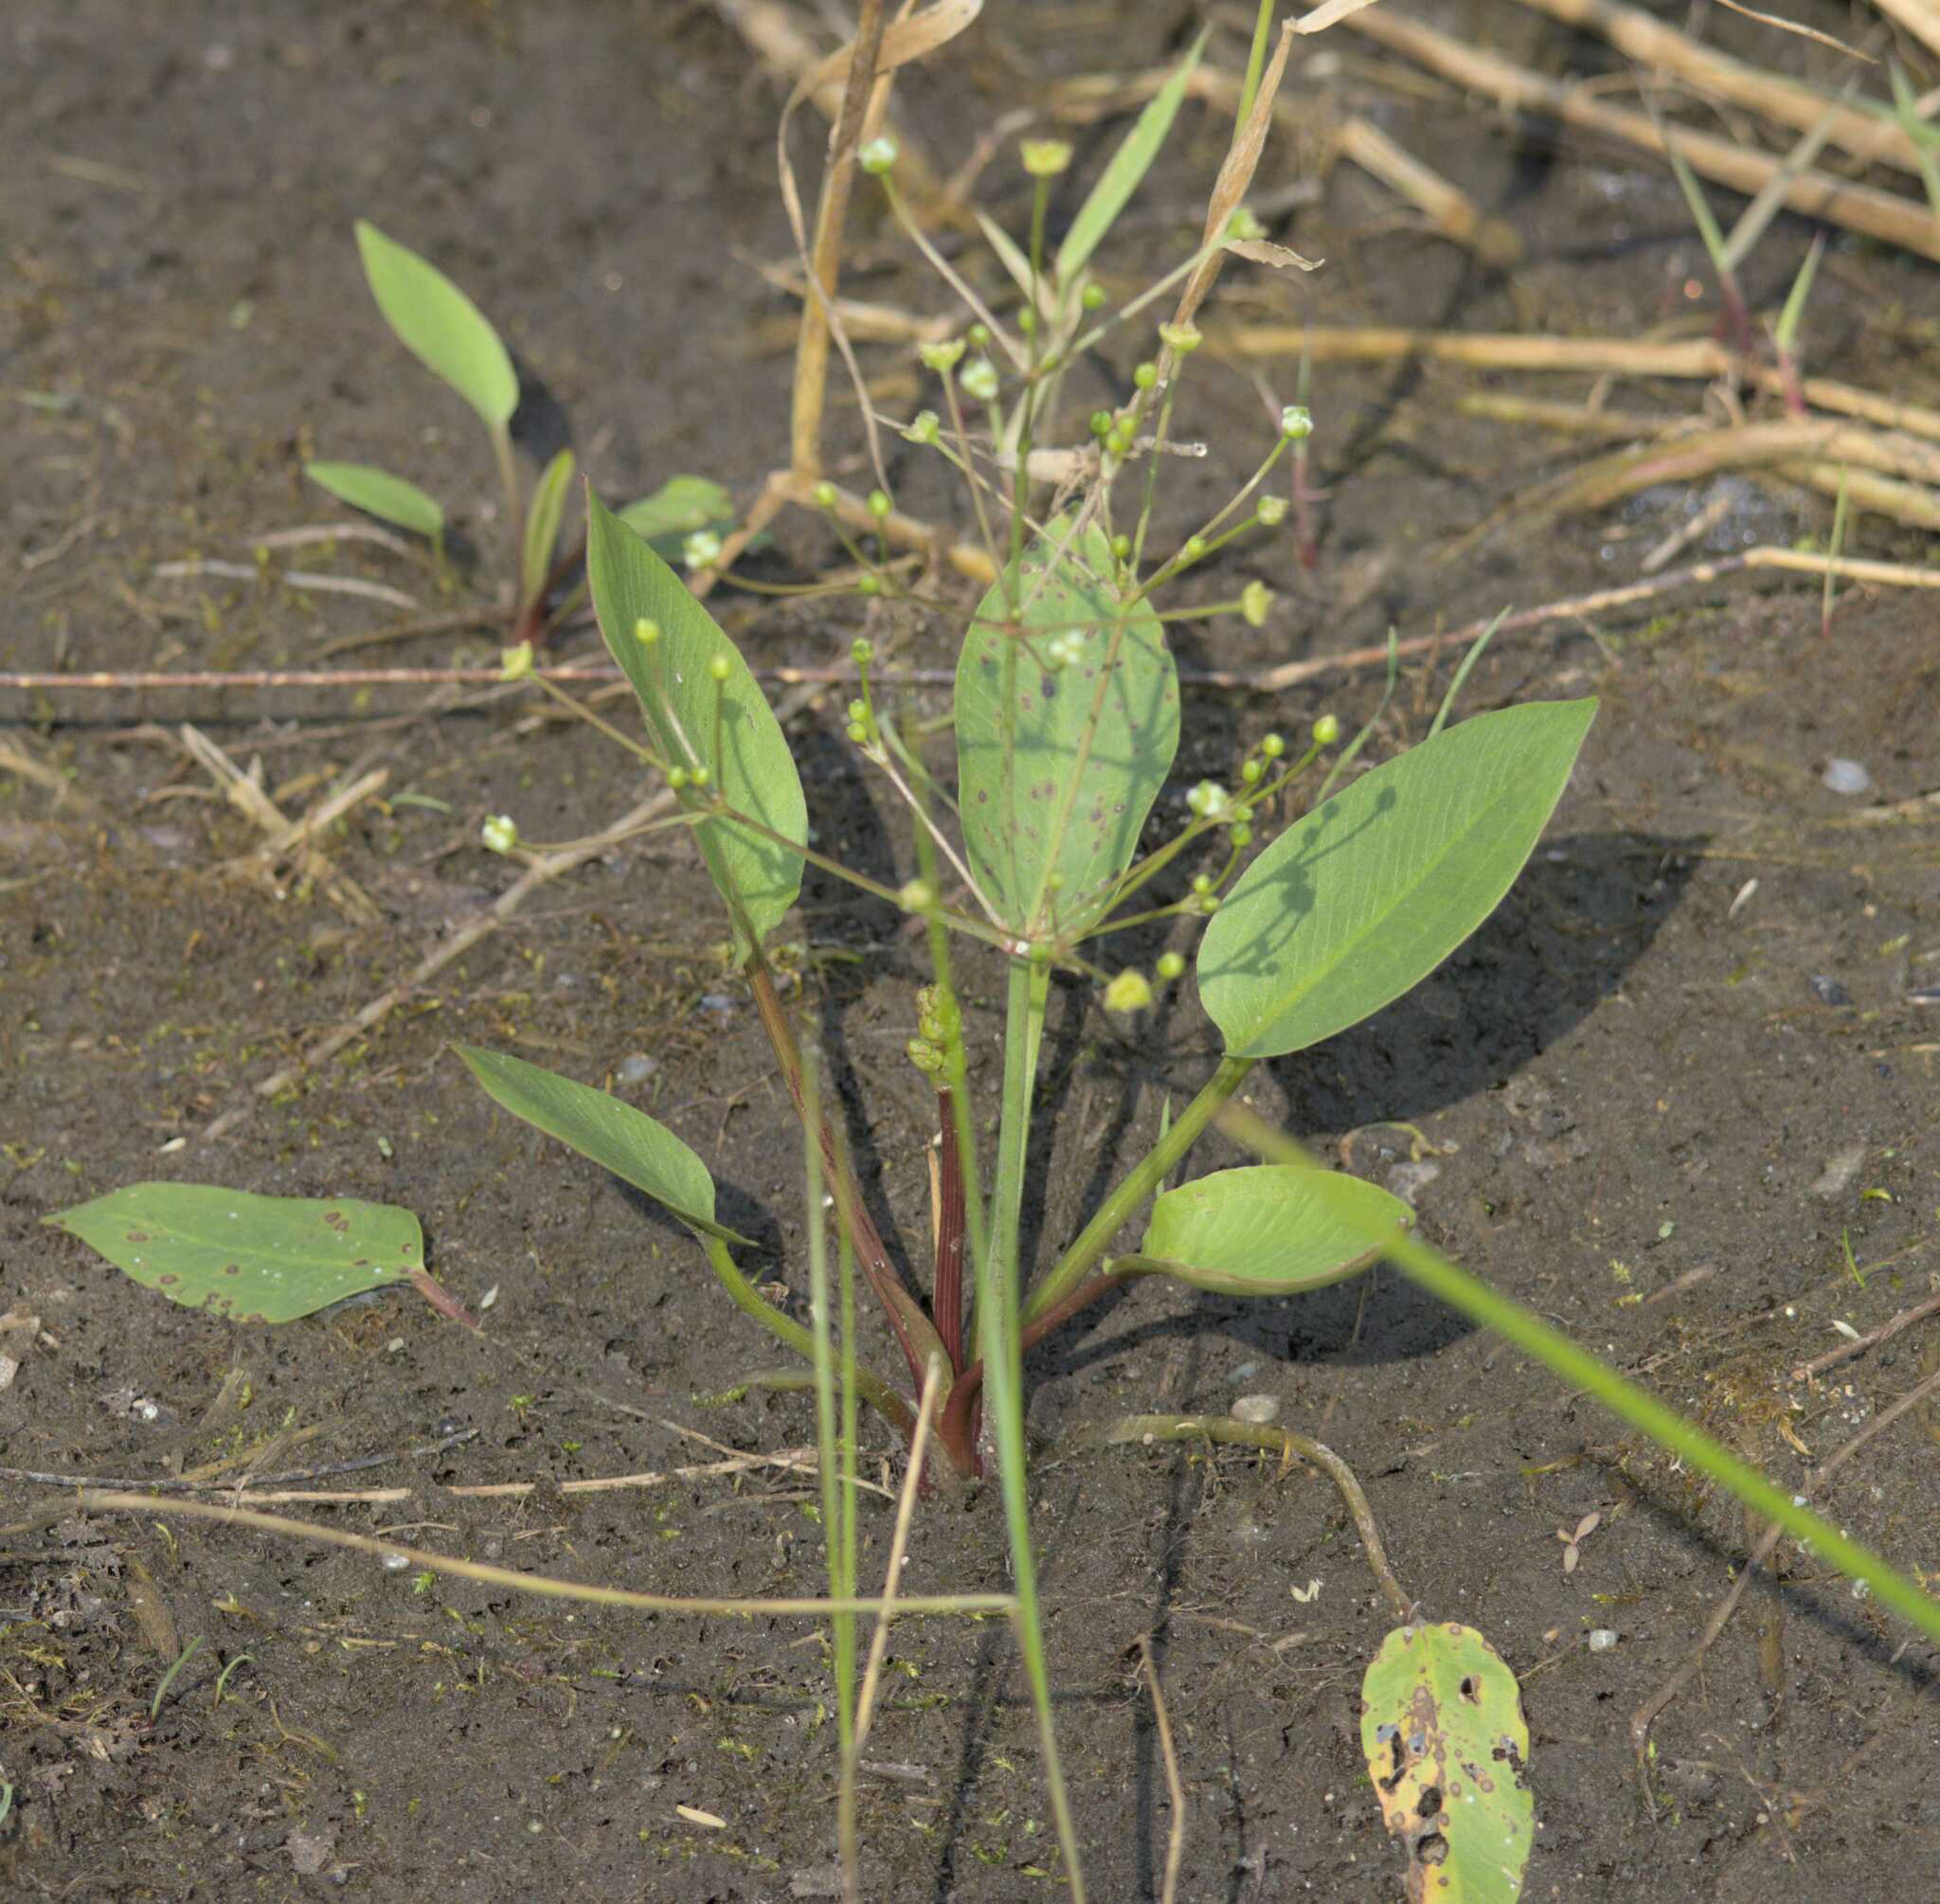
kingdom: Plantae
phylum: Tracheophyta
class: Liliopsida
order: Alismatales
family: Alismataceae
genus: Alisma
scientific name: Alisma triviale
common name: Northern water-plantain
